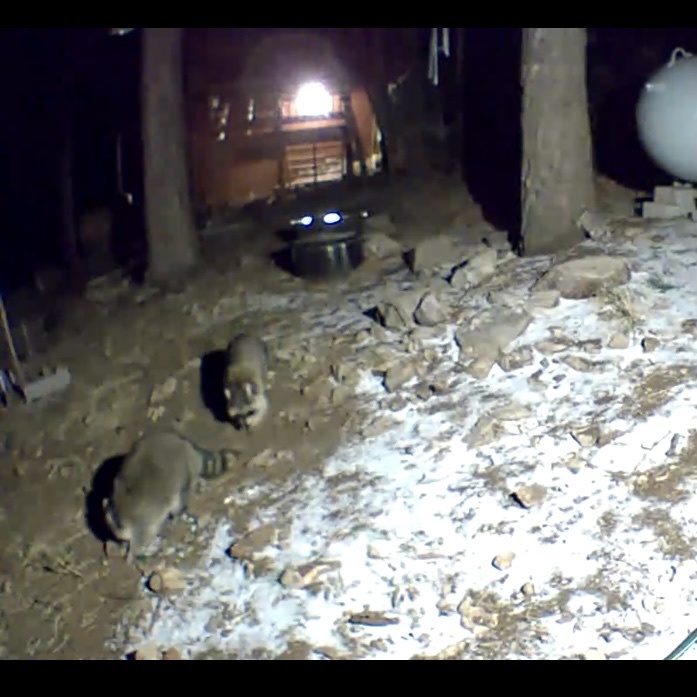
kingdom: Animalia
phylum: Chordata
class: Mammalia
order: Carnivora
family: Procyonidae
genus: Procyon
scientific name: Procyon lotor
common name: Raccoon
